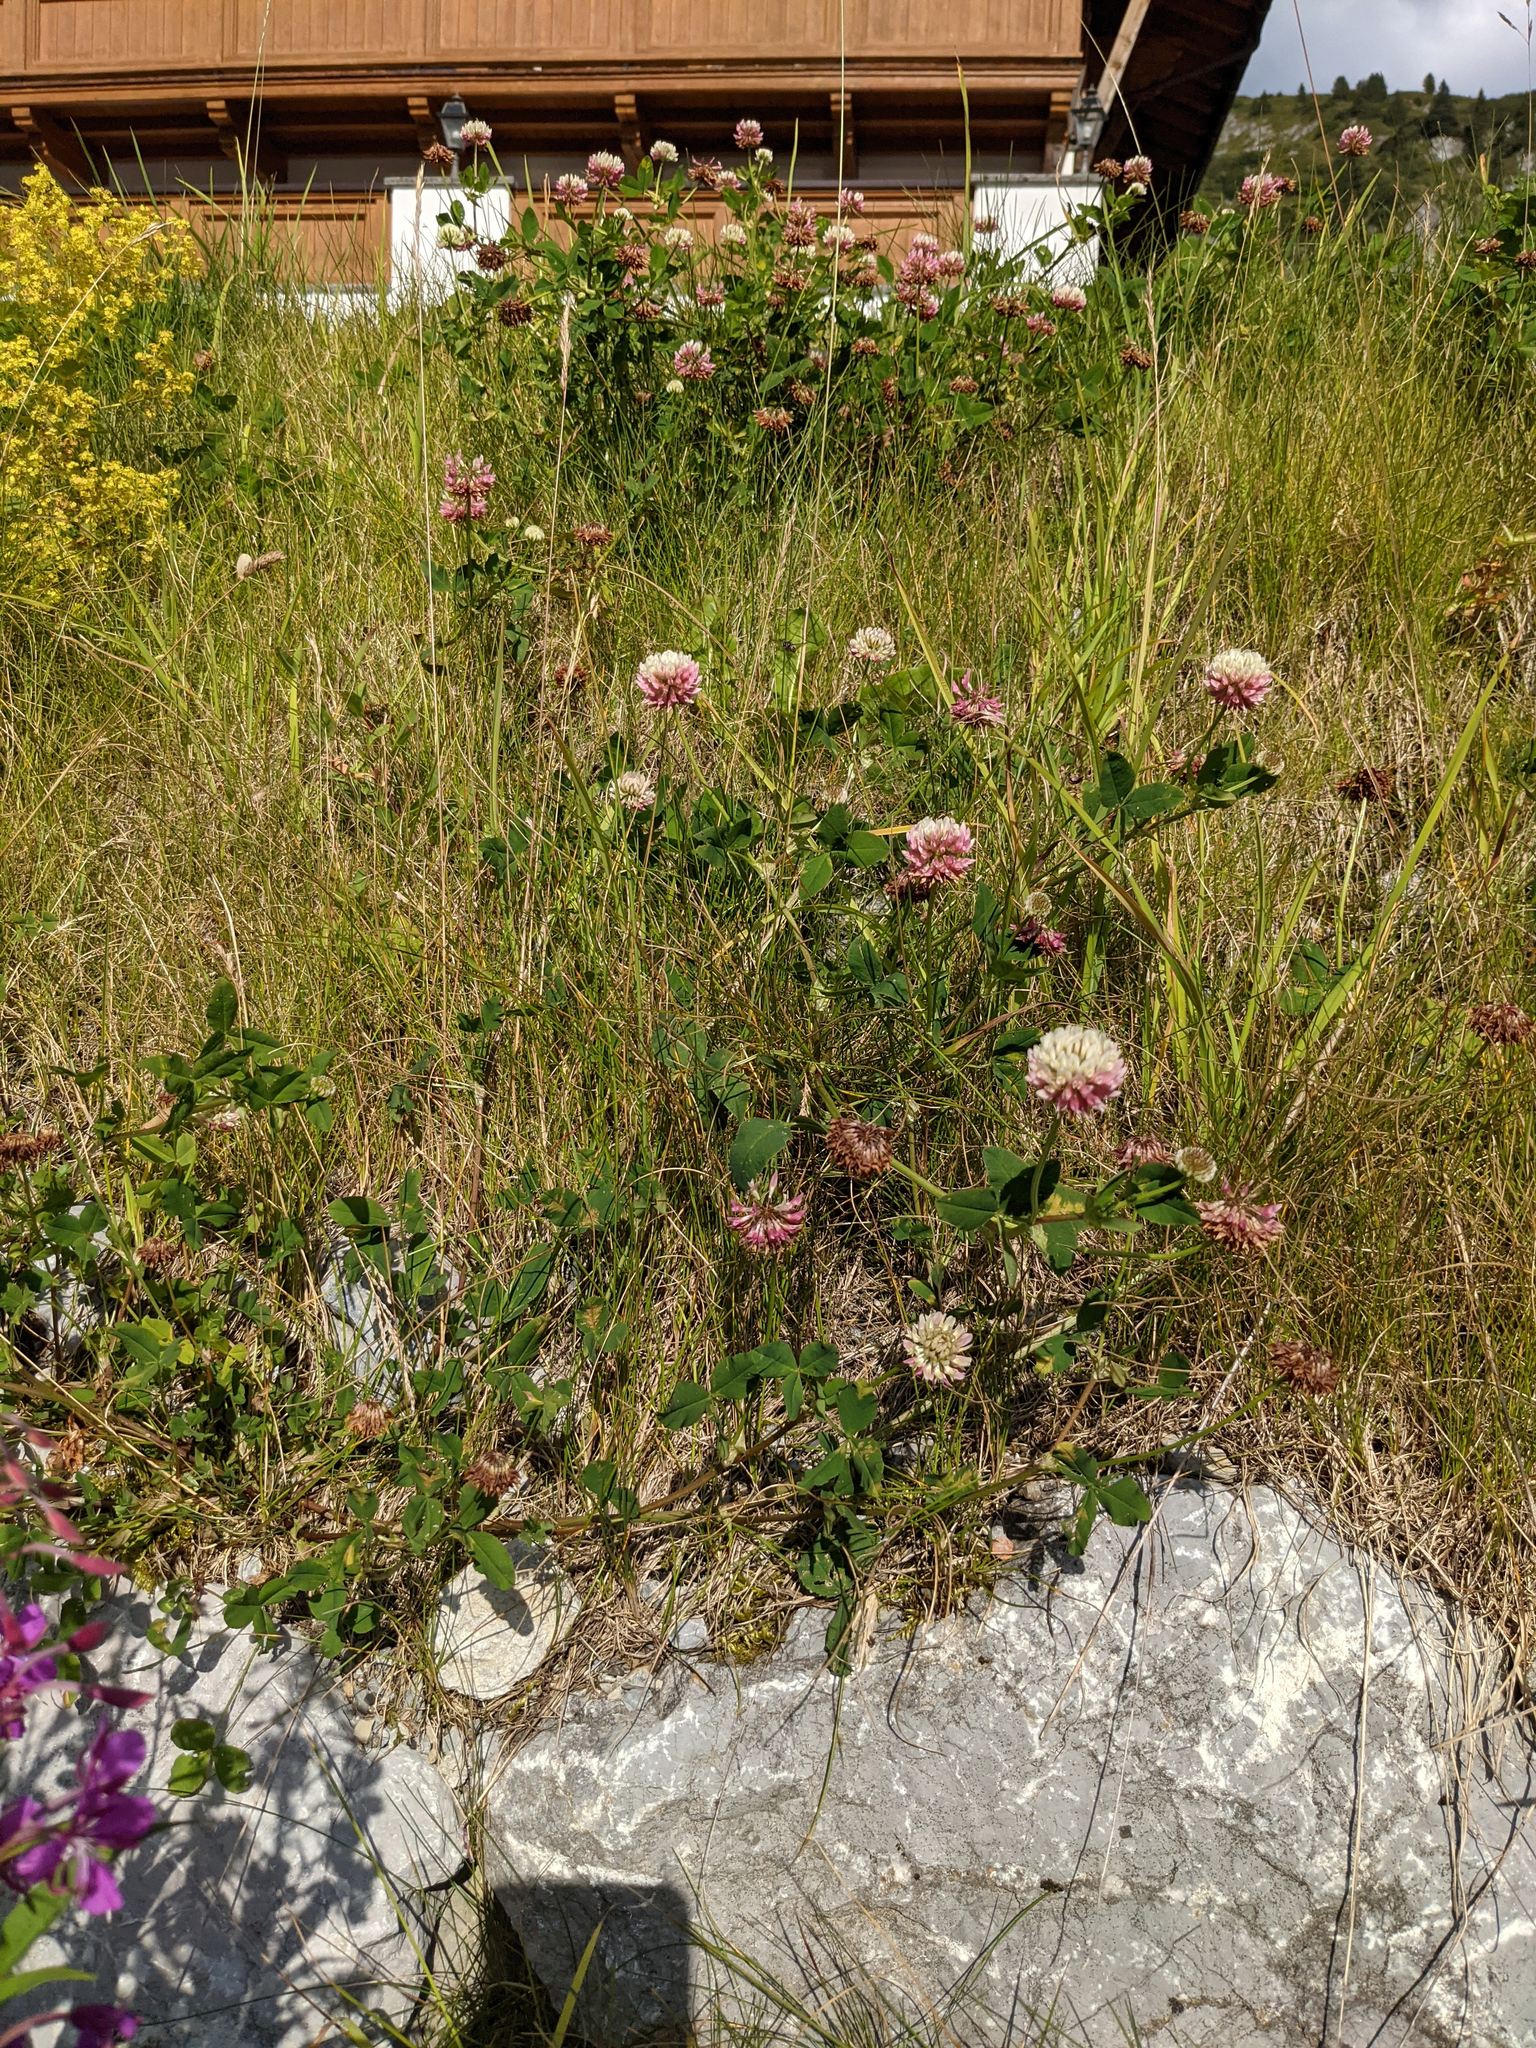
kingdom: Plantae
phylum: Tracheophyta
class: Magnoliopsida
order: Fabales
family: Fabaceae
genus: Trifolium
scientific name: Trifolium hybridum
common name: Alsike clover
